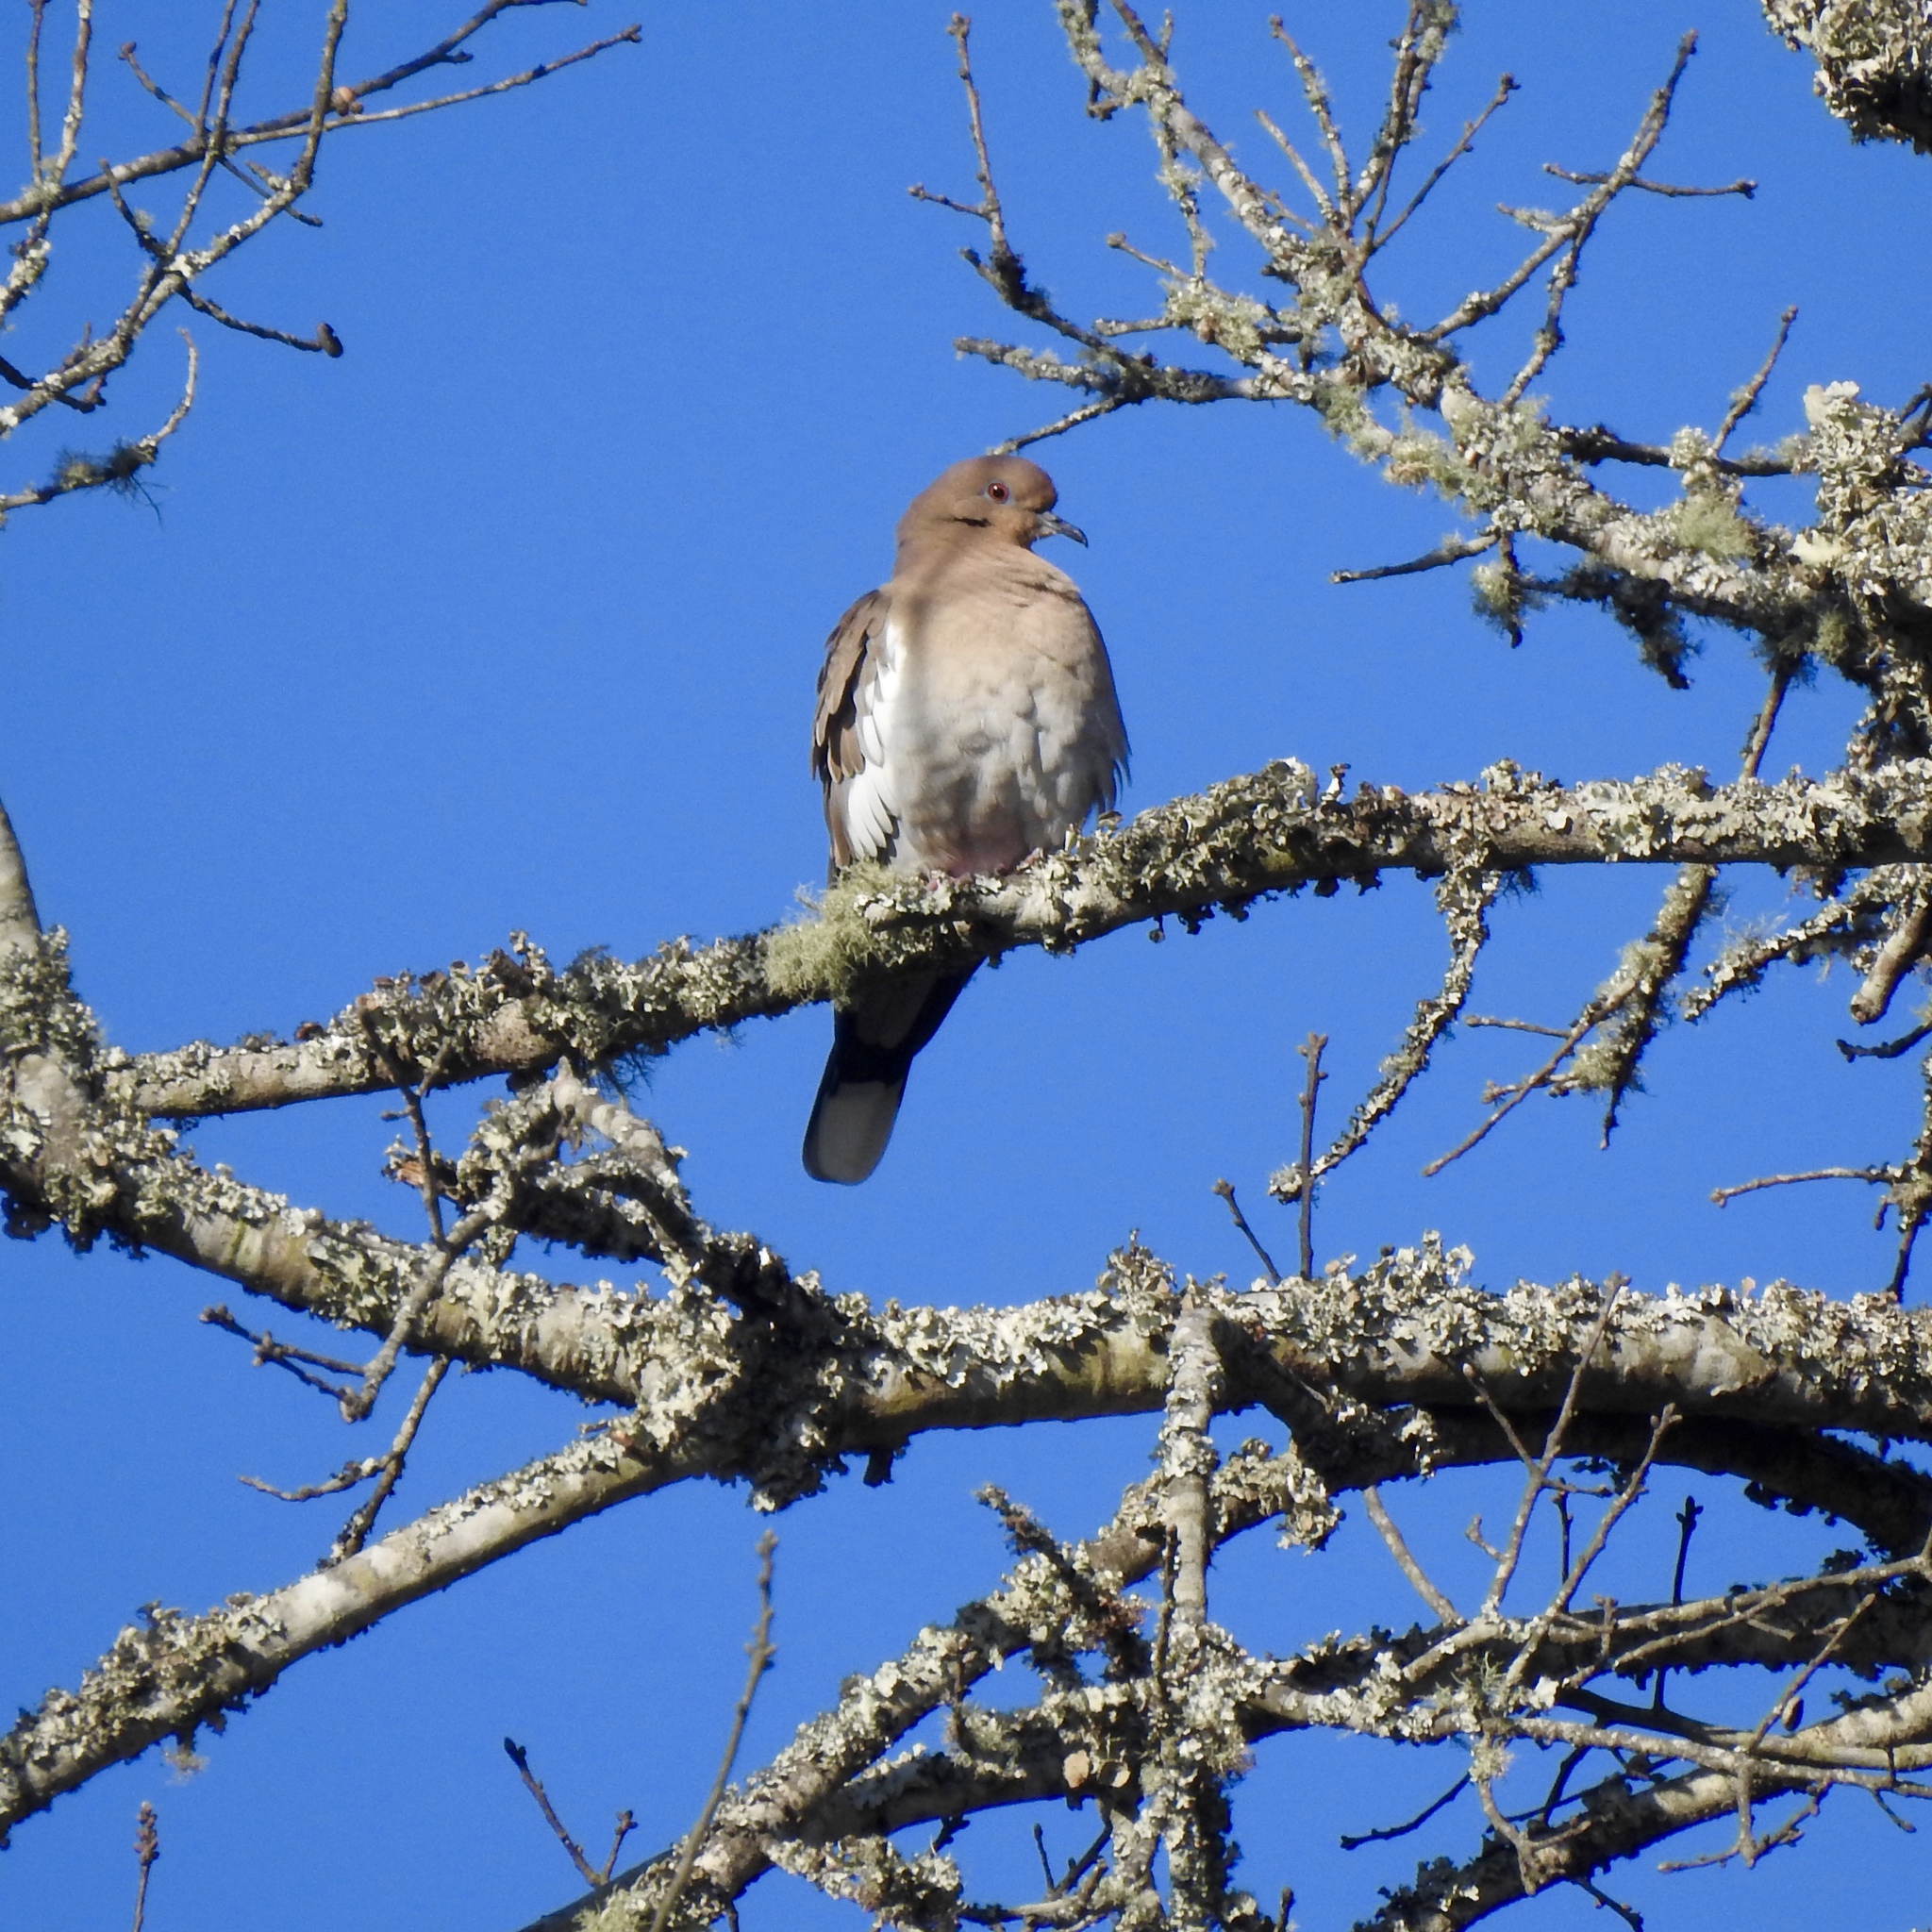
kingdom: Animalia
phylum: Chordata
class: Aves
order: Columbiformes
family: Columbidae
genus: Zenaida
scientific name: Zenaida asiatica
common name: White-winged dove
